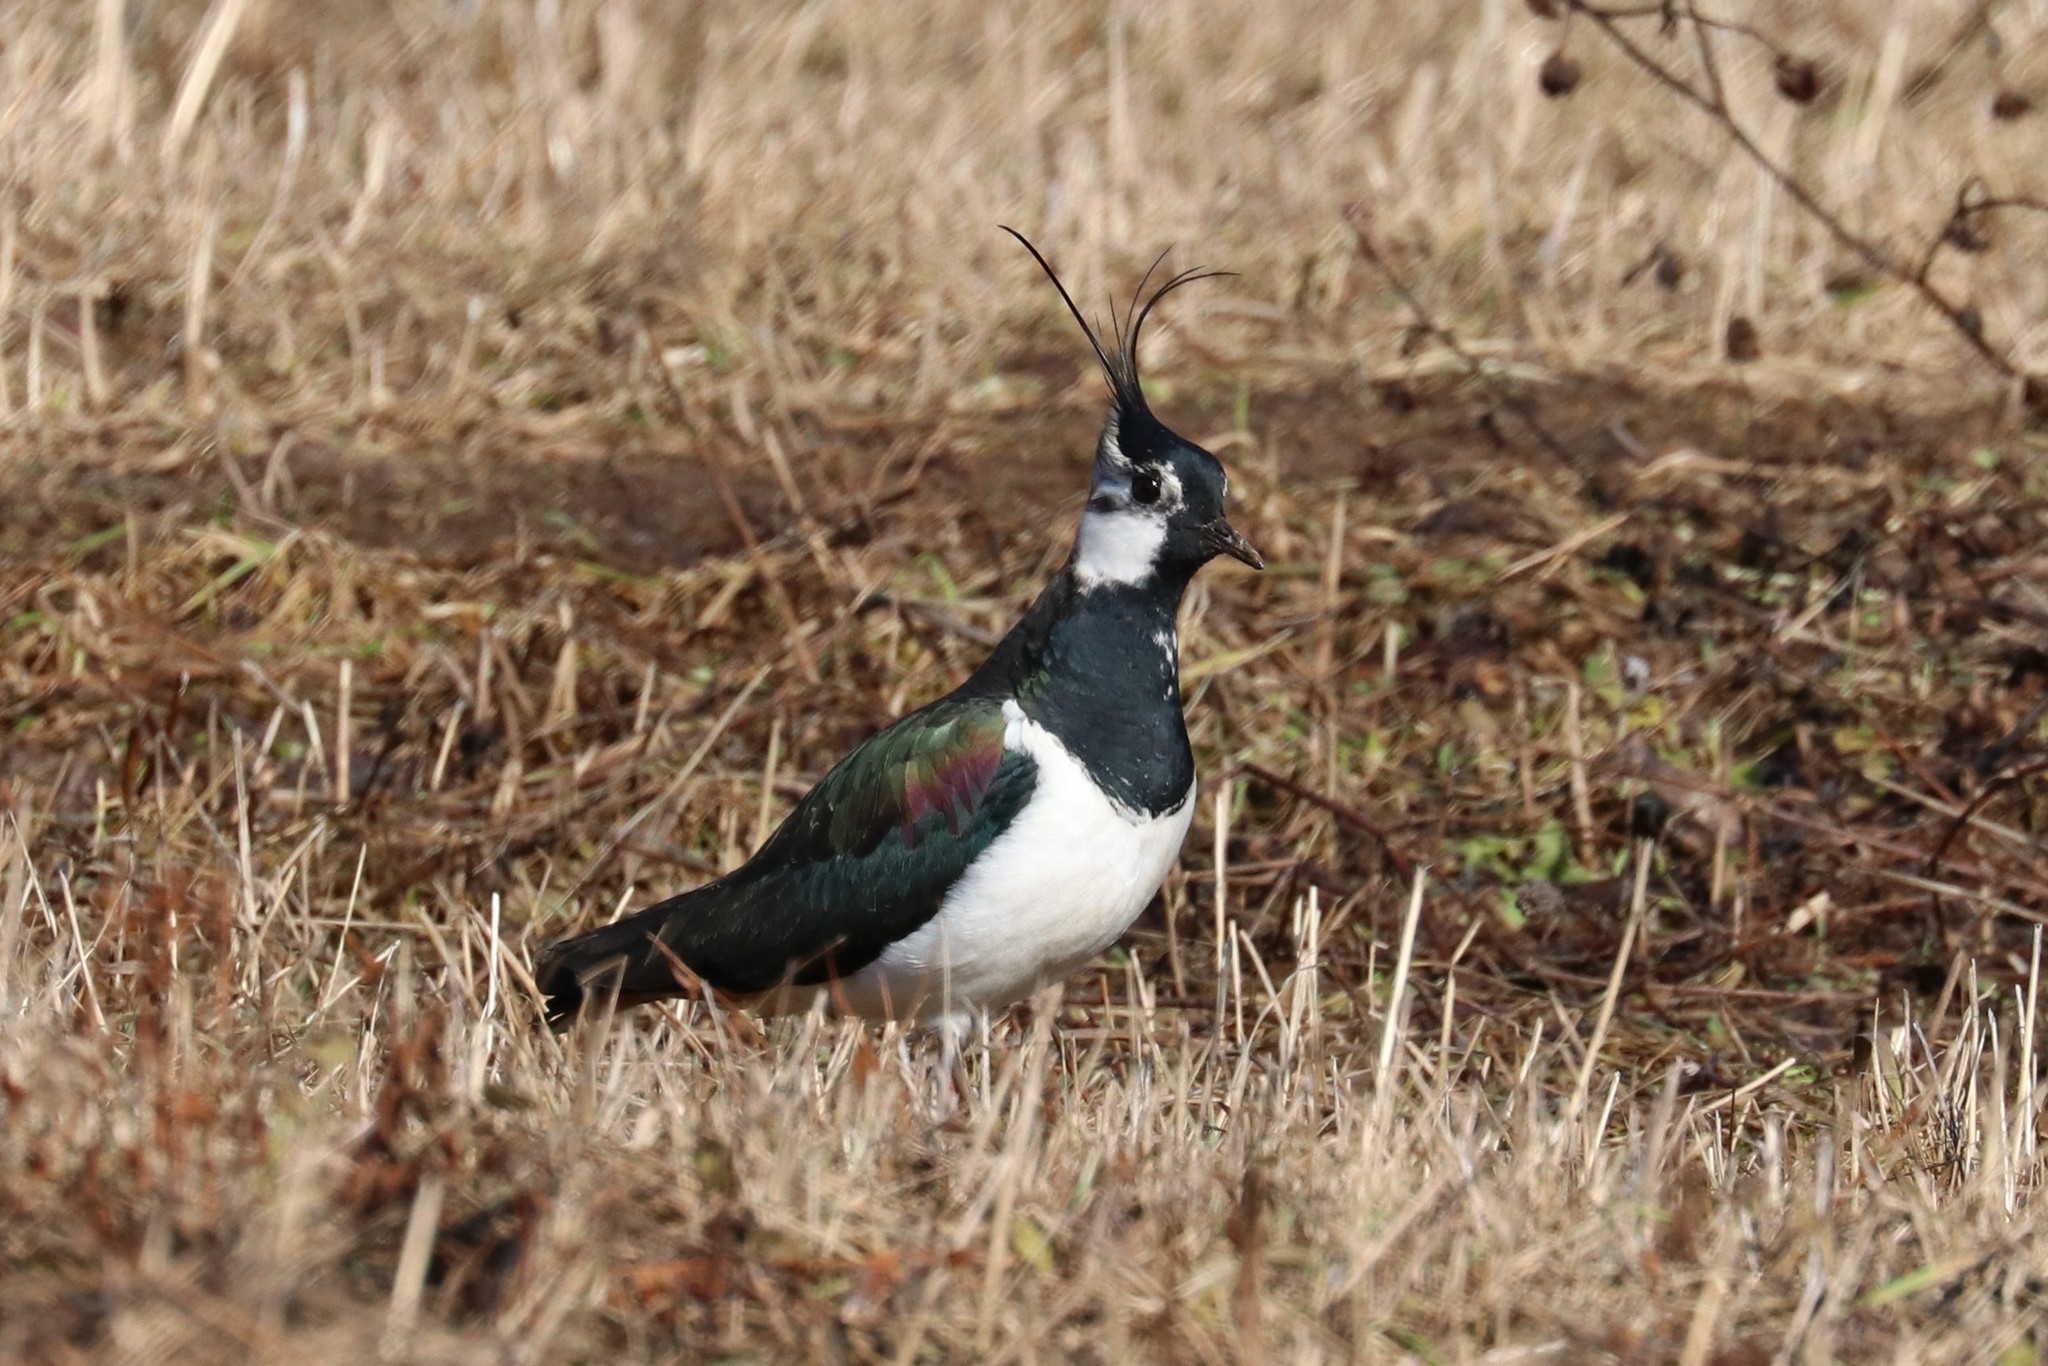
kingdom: Animalia
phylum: Chordata
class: Aves
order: Charadriiformes
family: Charadriidae
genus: Vanellus
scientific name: Vanellus vanellus
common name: Northern lapwing
